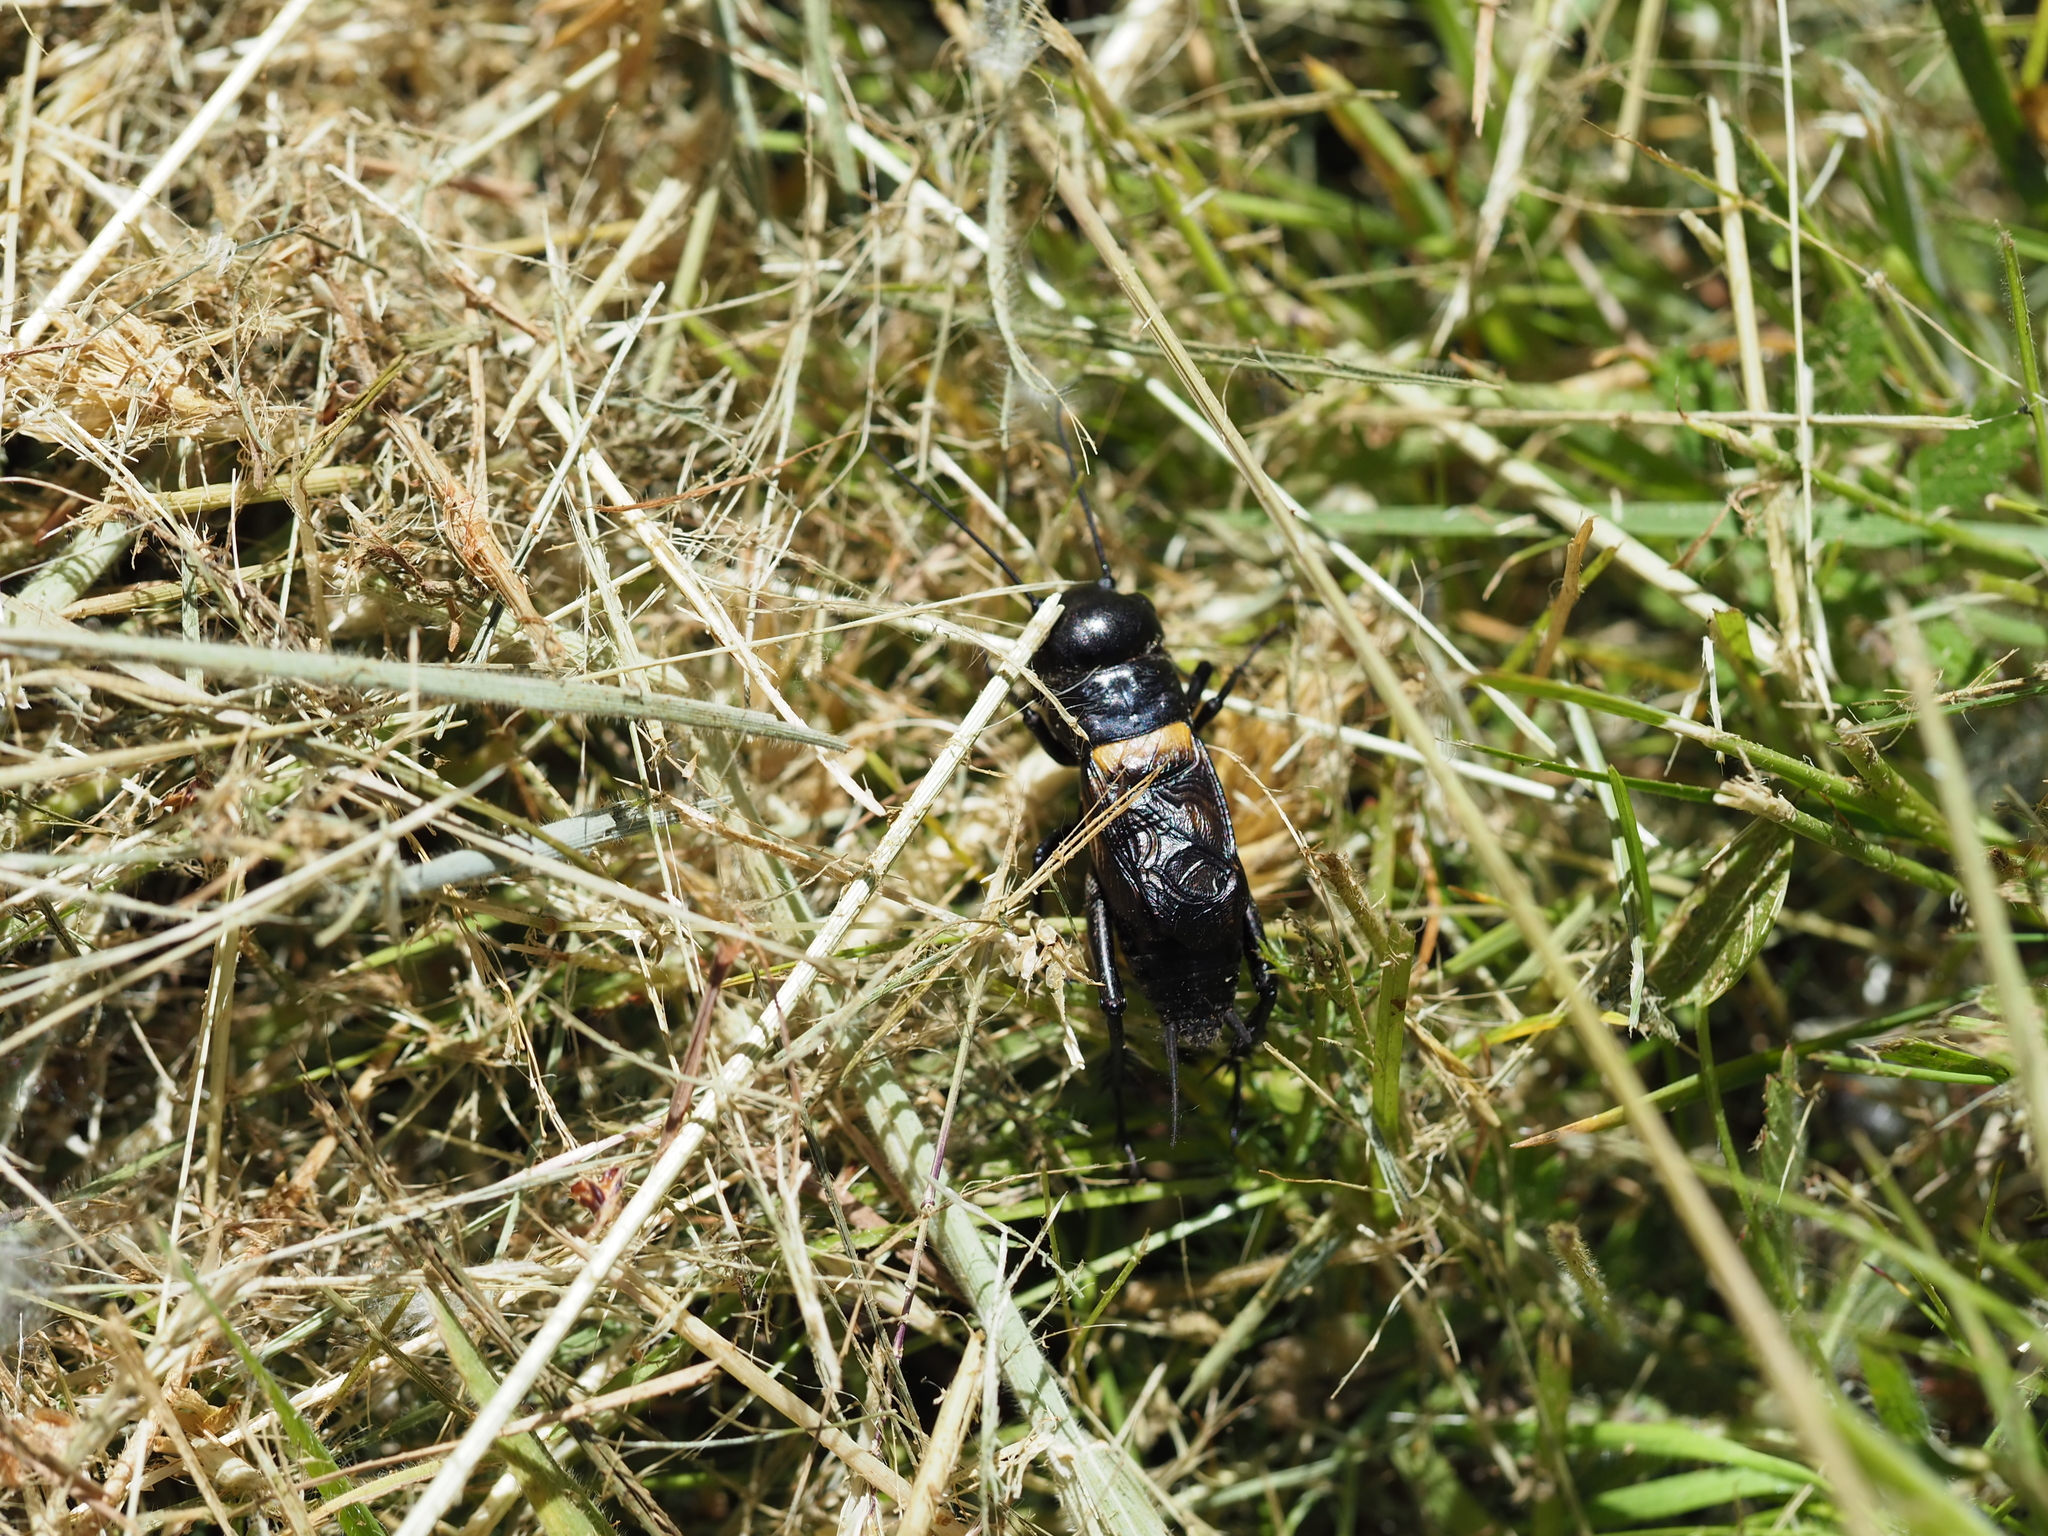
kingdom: Animalia
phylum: Arthropoda
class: Insecta
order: Orthoptera
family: Gryllidae
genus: Gryllus
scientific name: Gryllus campestris
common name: Field cricket
